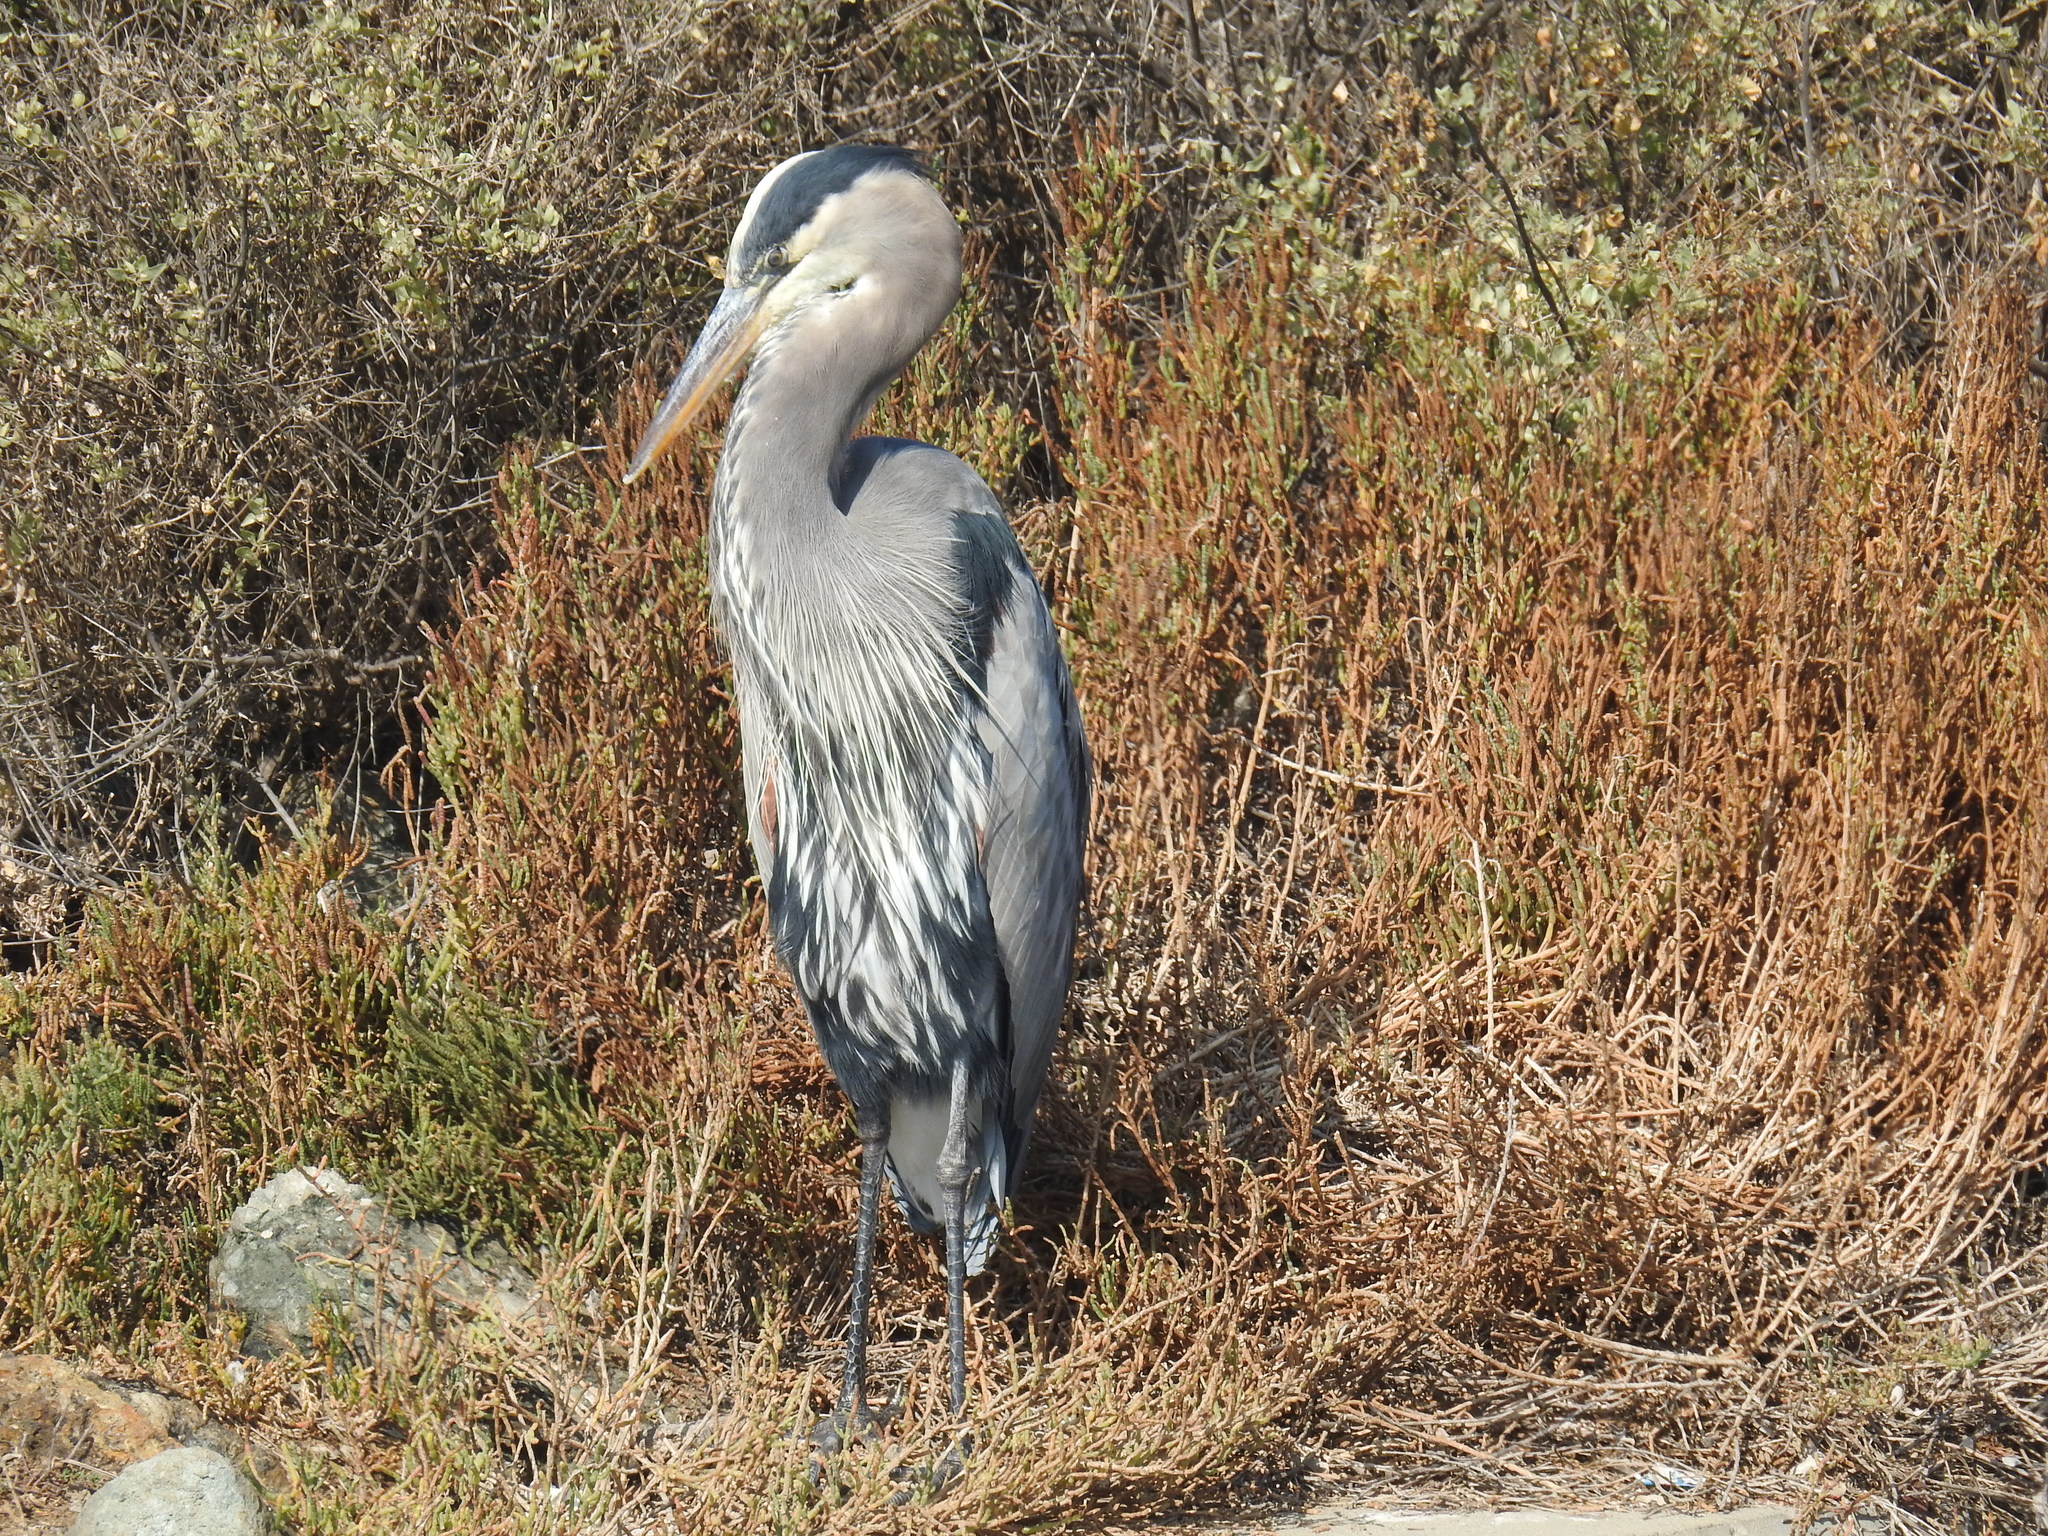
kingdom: Animalia
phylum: Chordata
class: Aves
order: Pelecaniformes
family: Ardeidae
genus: Ardea
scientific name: Ardea herodias
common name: Great blue heron
